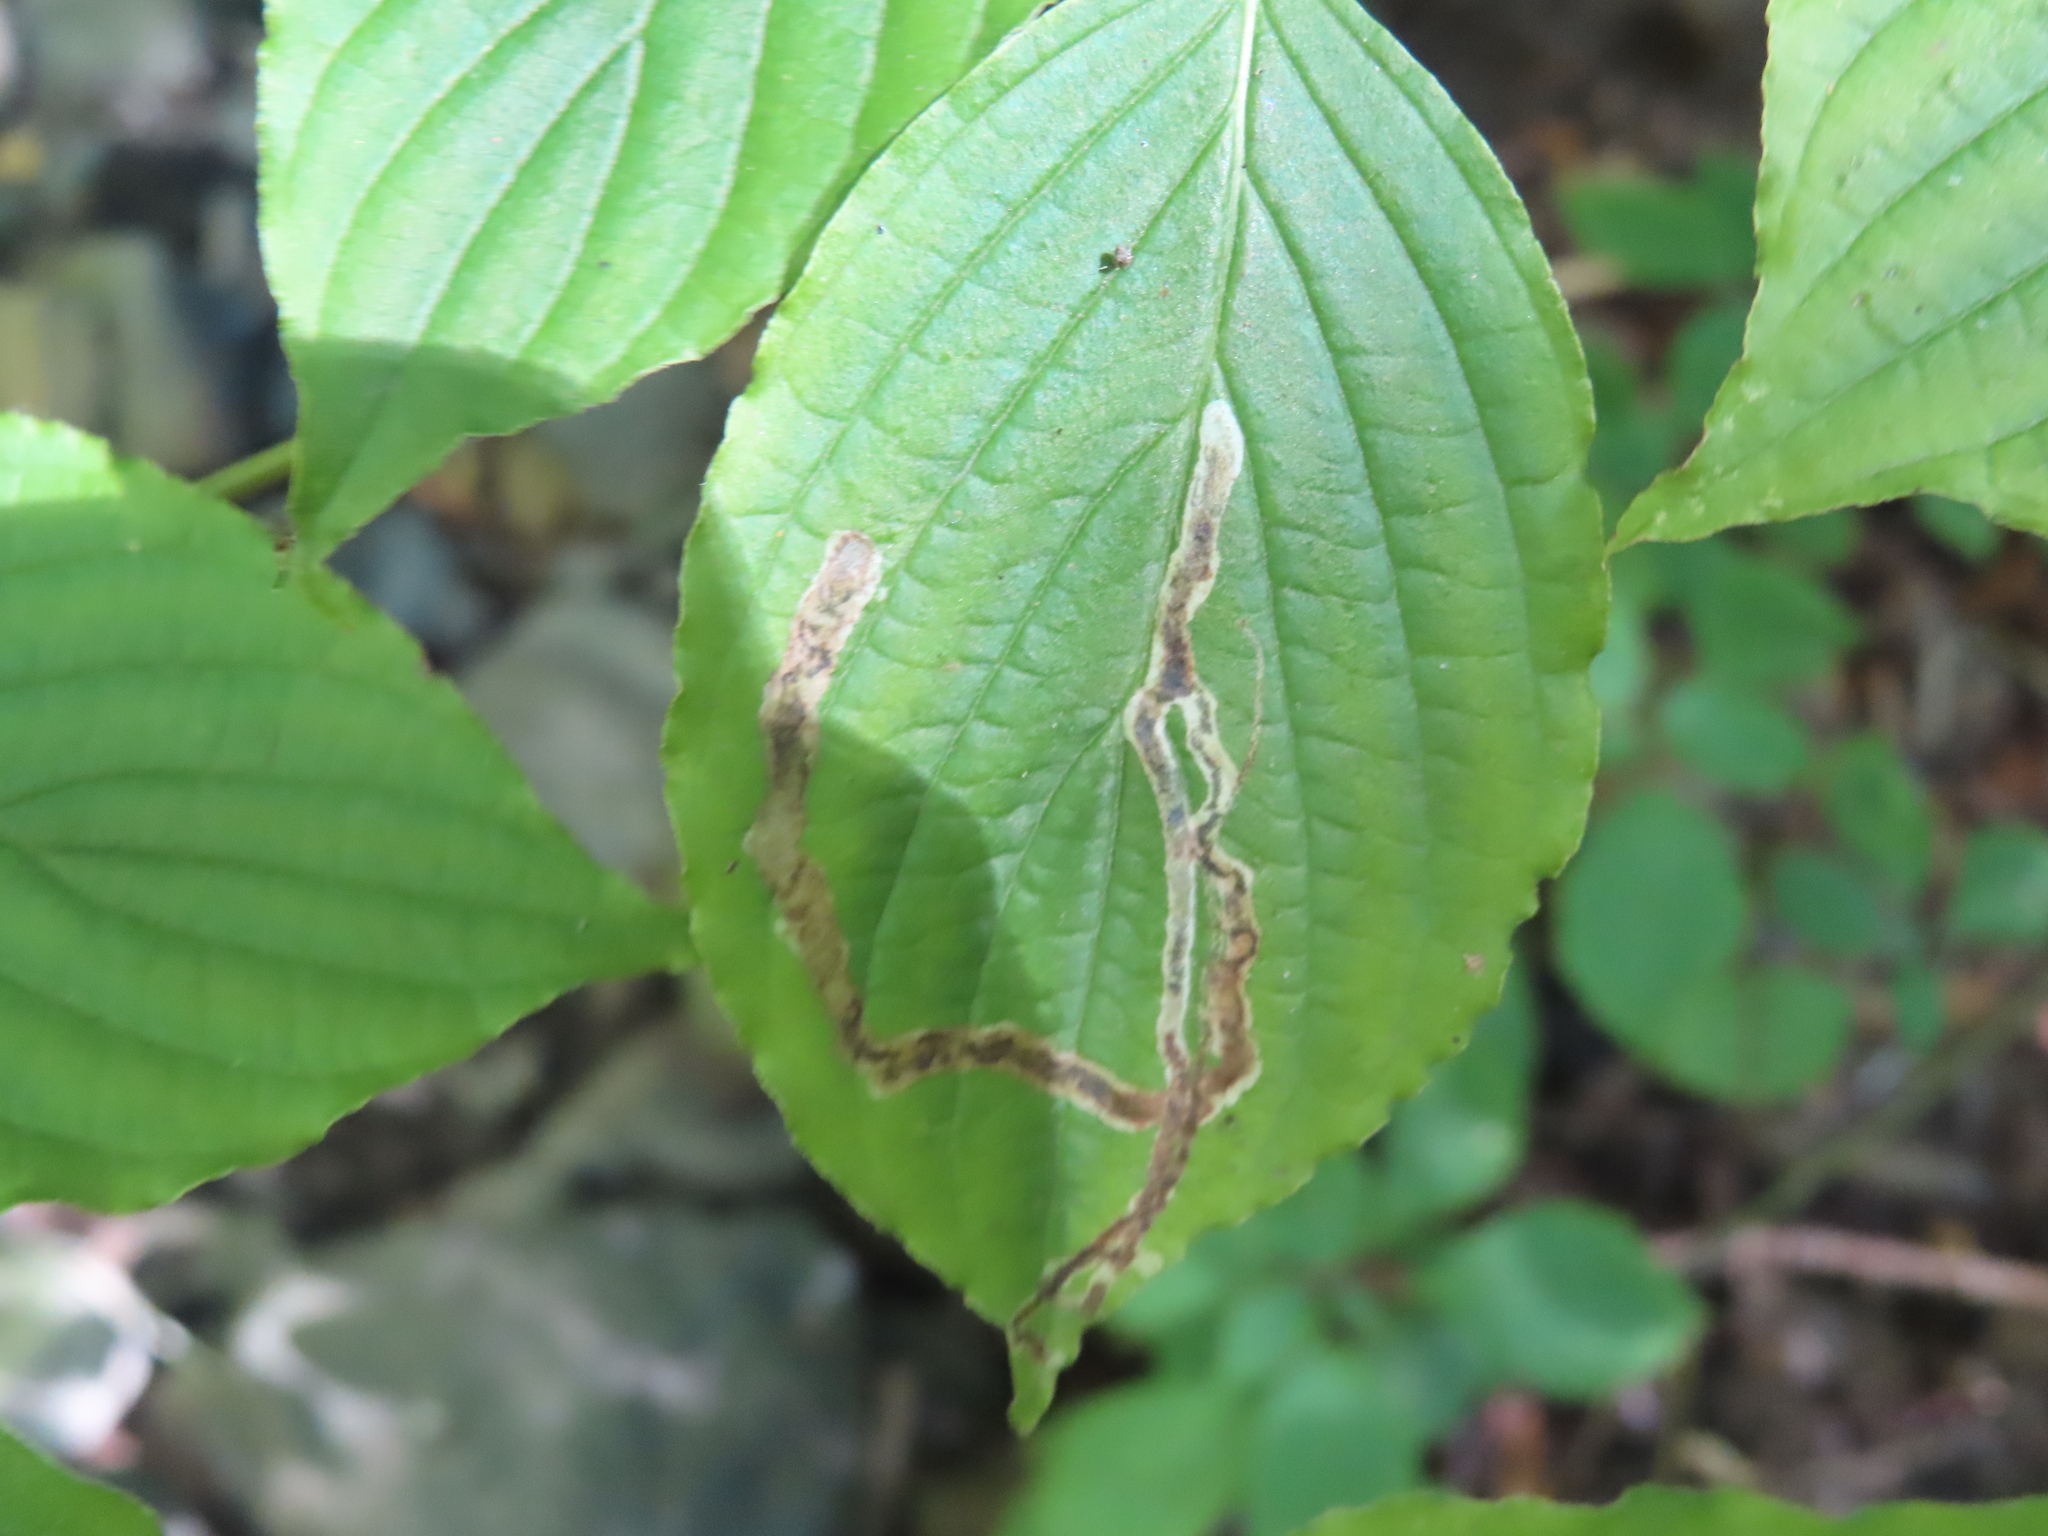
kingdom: Animalia
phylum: Arthropoda
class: Insecta
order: Diptera
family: Agromyzidae
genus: Phytomyza
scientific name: Phytomyza agromyzina
